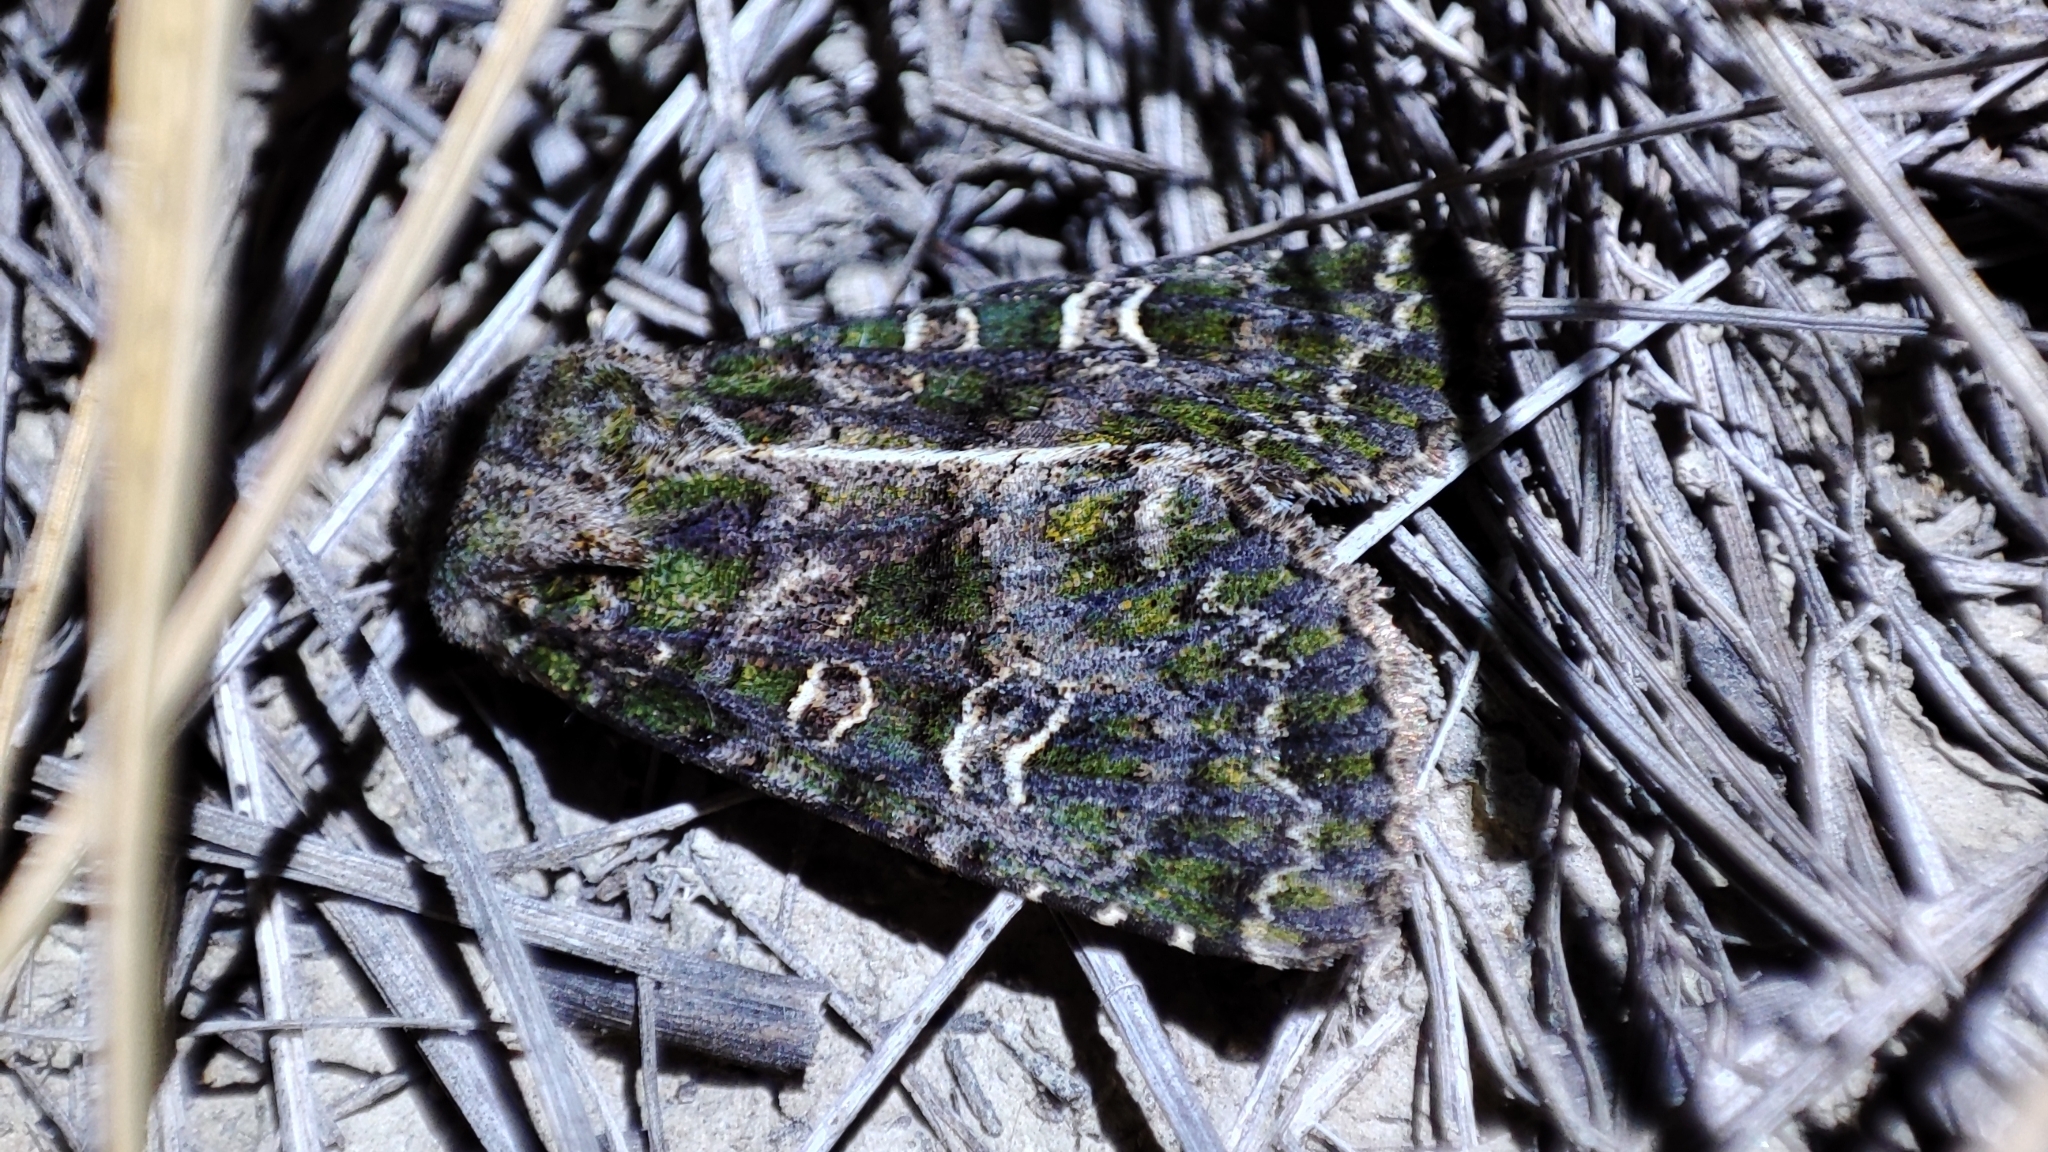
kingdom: Animalia
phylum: Arthropoda
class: Insecta
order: Lepidoptera
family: Noctuidae
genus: Sidemia
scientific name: Sidemia spilogramma
